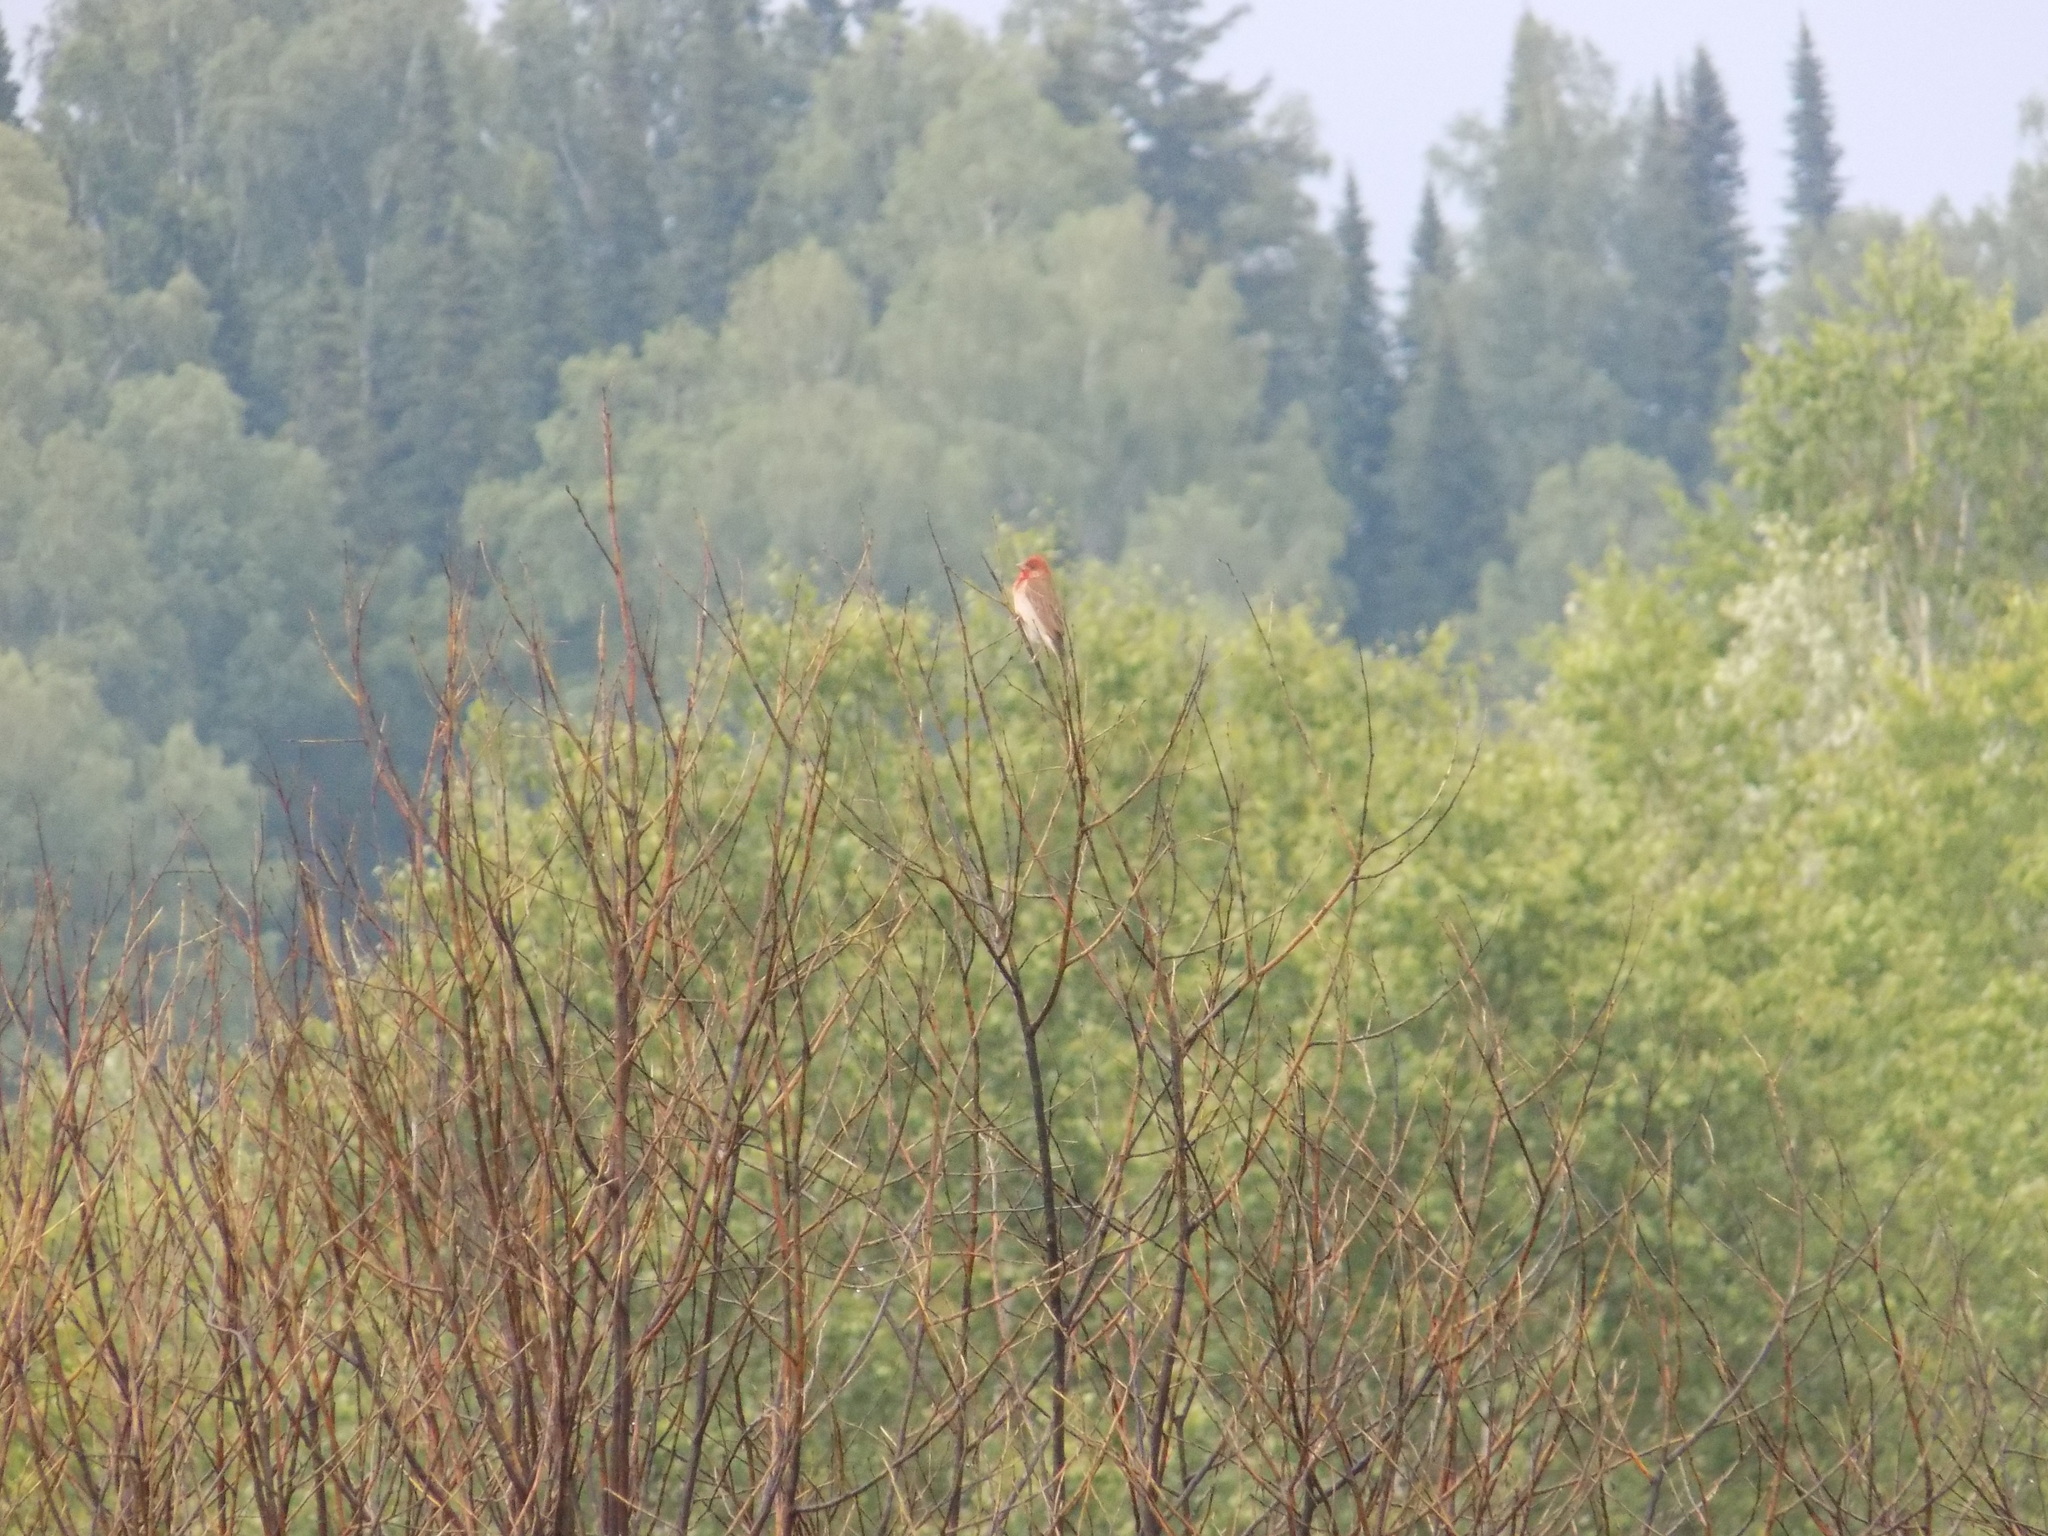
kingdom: Animalia
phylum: Chordata
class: Aves
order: Passeriformes
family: Fringillidae
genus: Carpodacus
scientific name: Carpodacus erythrinus
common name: Common rosefinch
